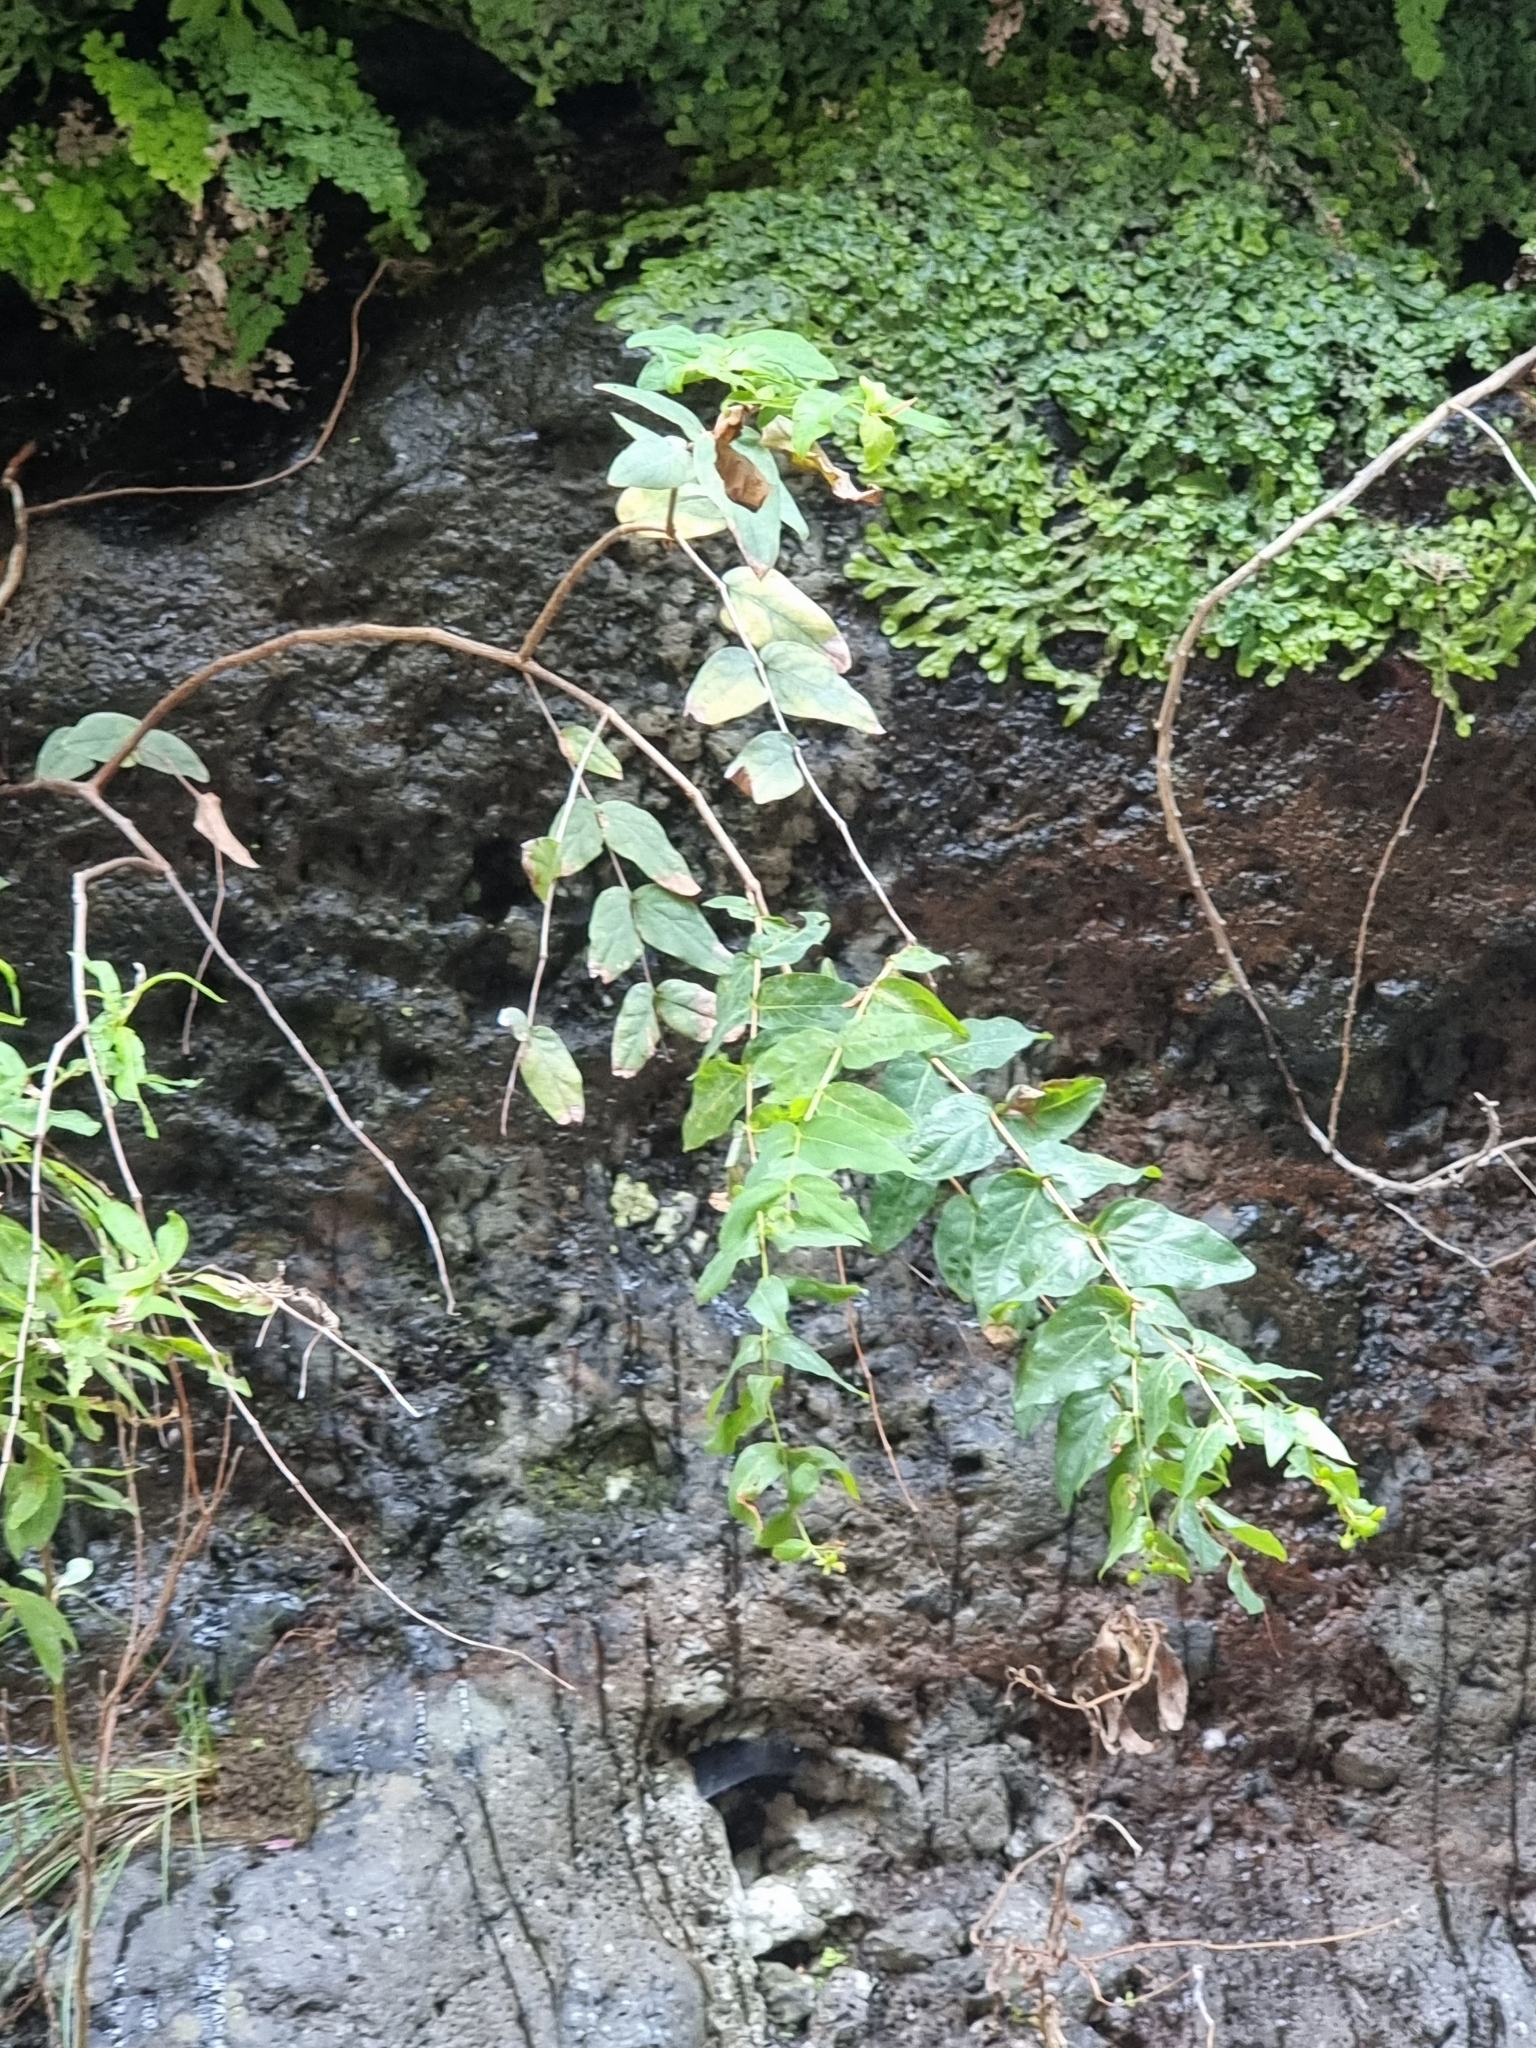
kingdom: Plantae
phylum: Tracheophyta
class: Magnoliopsida
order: Malpighiales
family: Hypericaceae
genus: Hypericum
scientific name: Hypericum grandifolium
